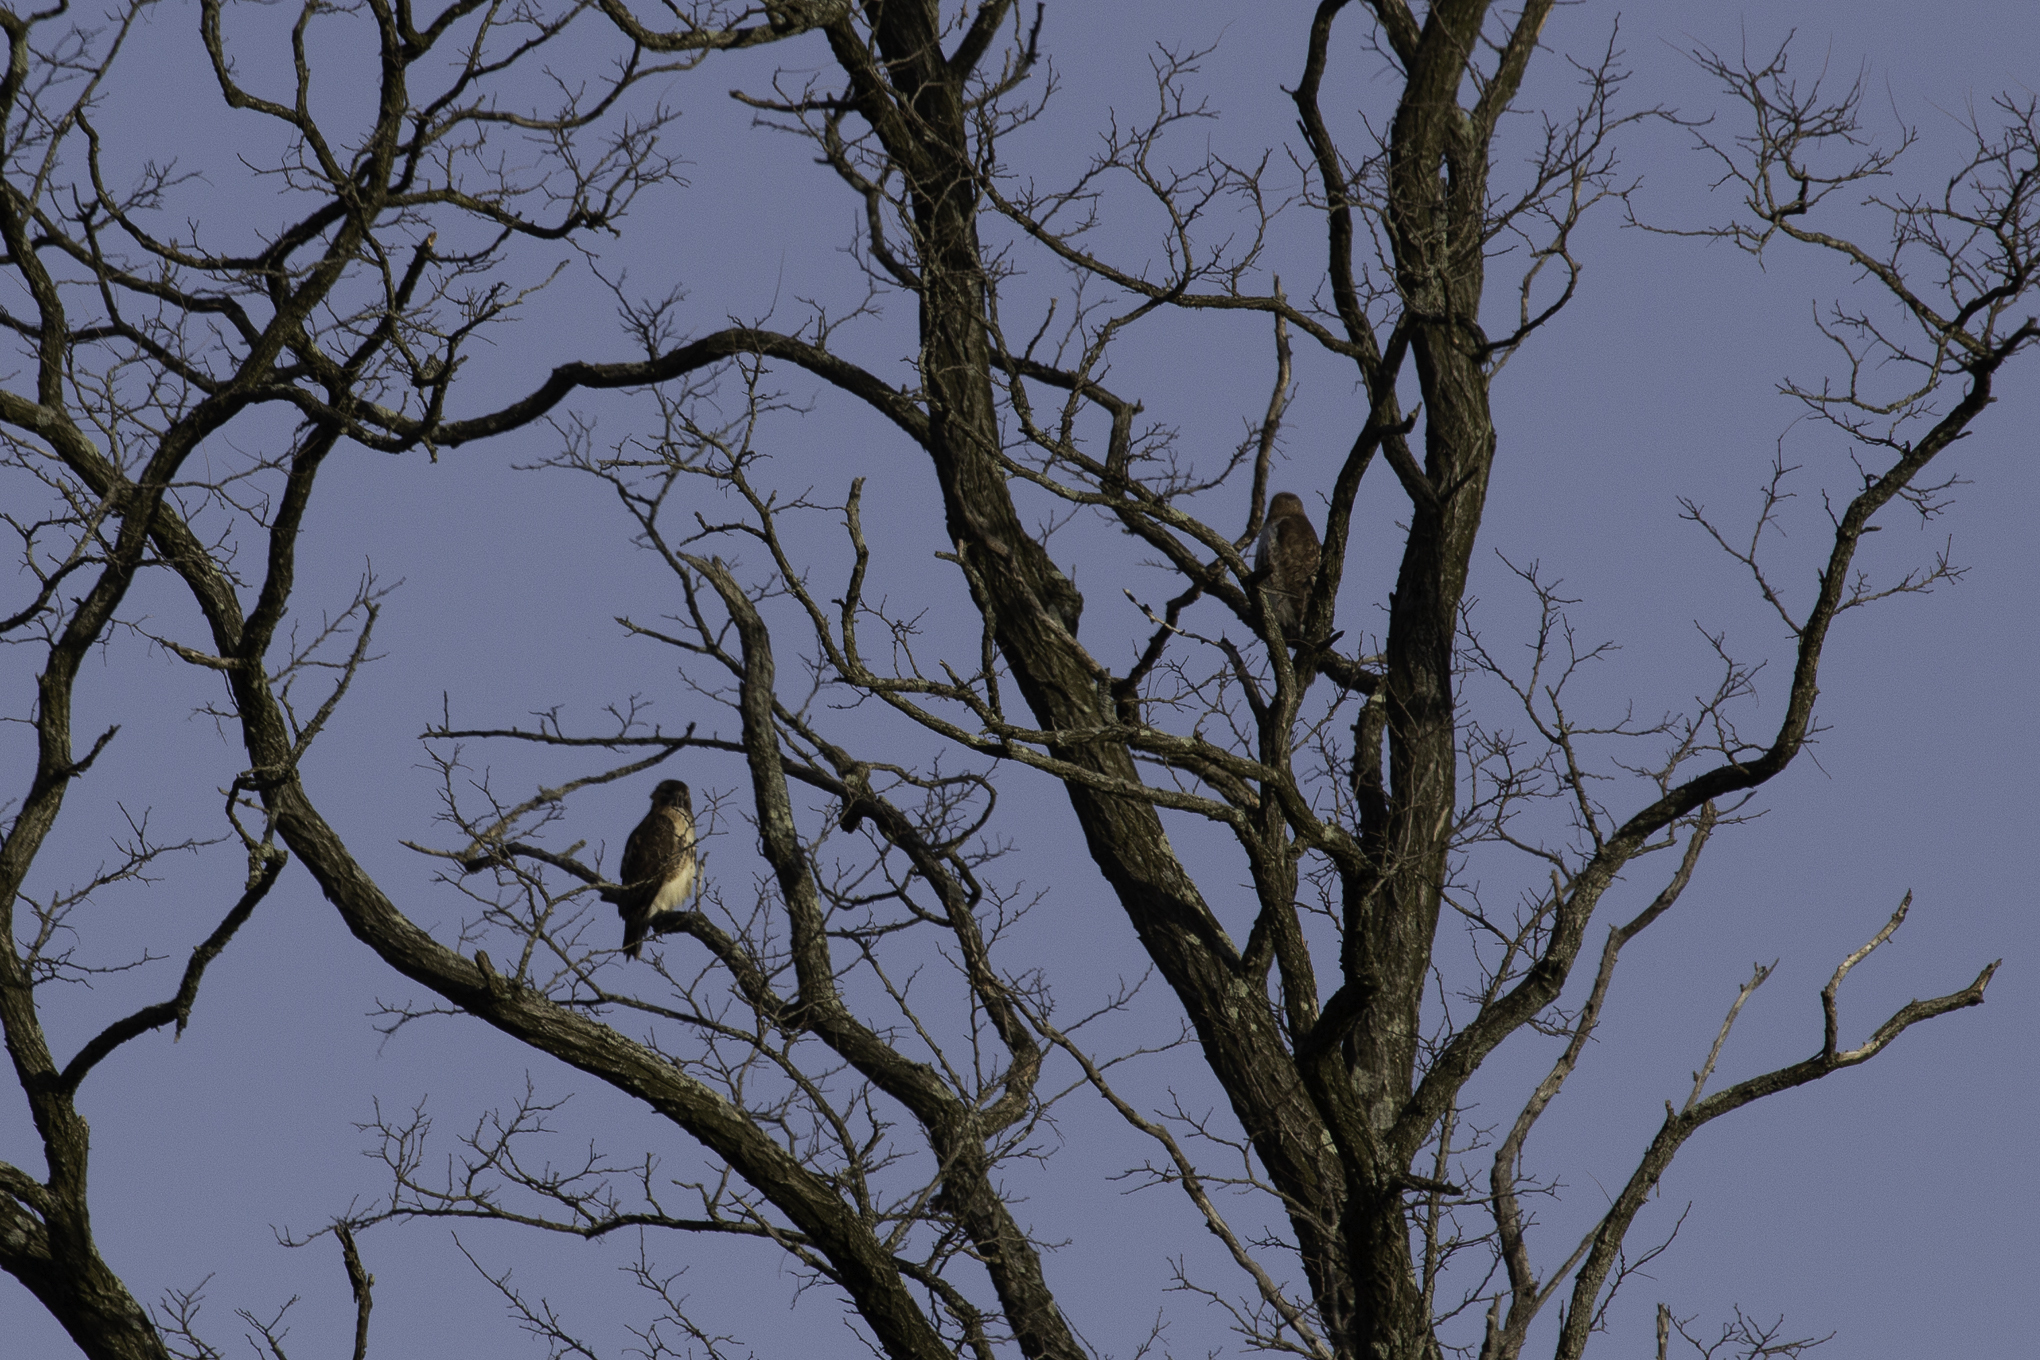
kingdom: Animalia
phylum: Chordata
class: Aves
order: Accipitriformes
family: Accipitridae
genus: Buteo
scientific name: Buteo jamaicensis
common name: Red-tailed hawk
